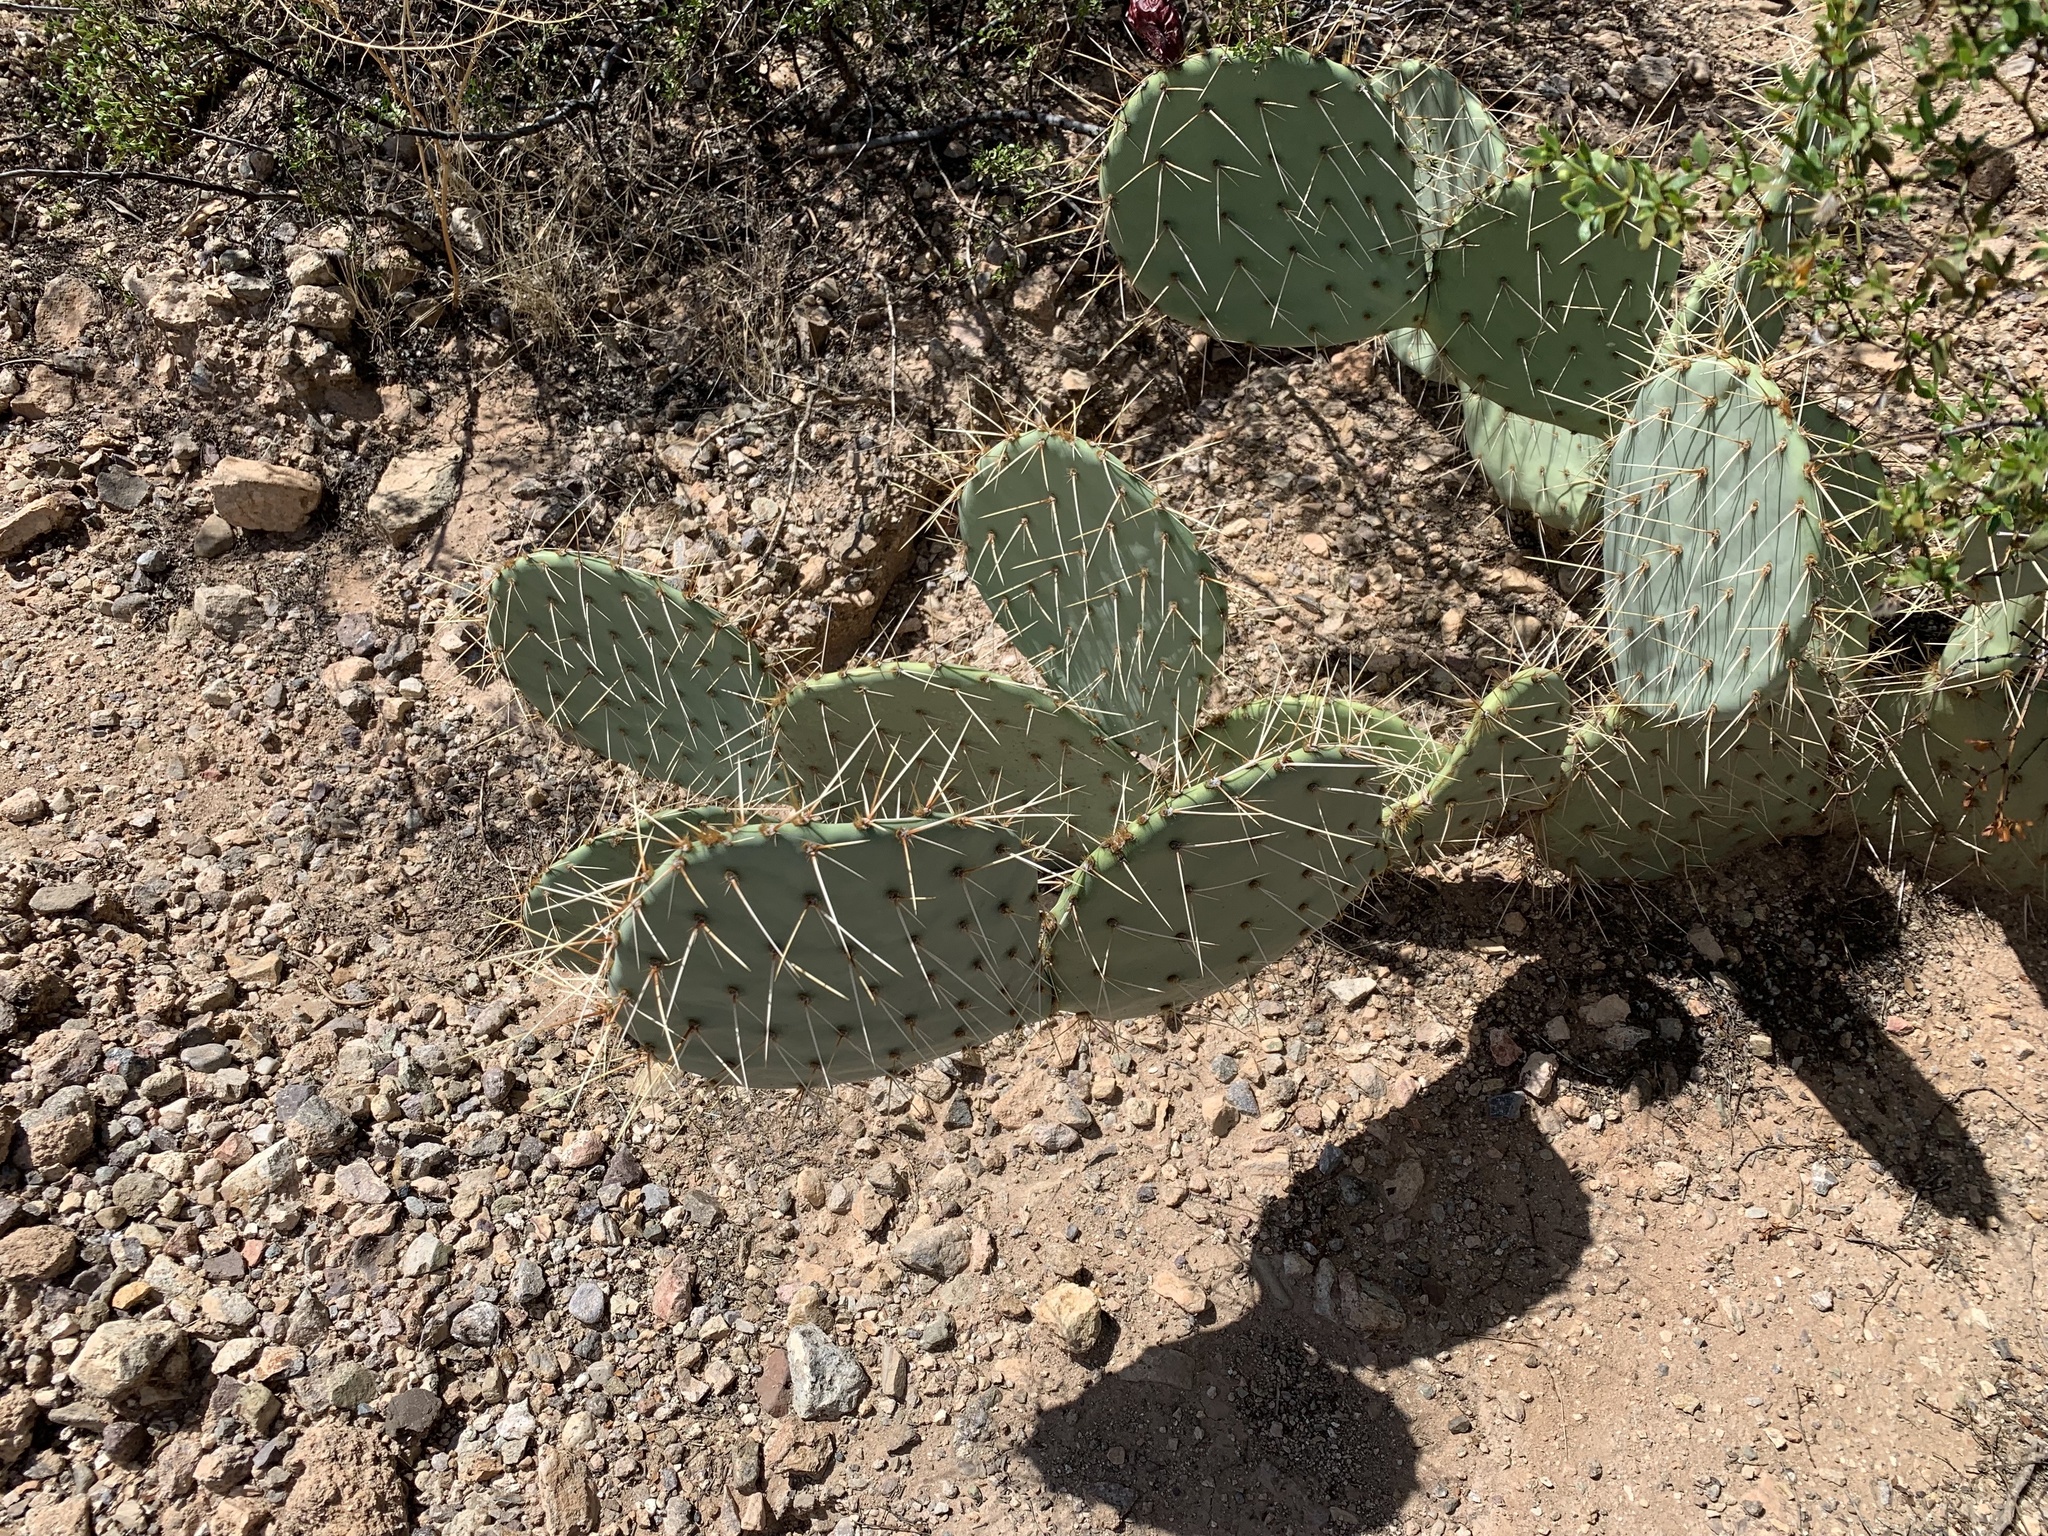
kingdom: Plantae
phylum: Tracheophyta
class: Magnoliopsida
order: Caryophyllales
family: Cactaceae
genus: Opuntia
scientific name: Opuntia engelmannii
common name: Cactus-apple
